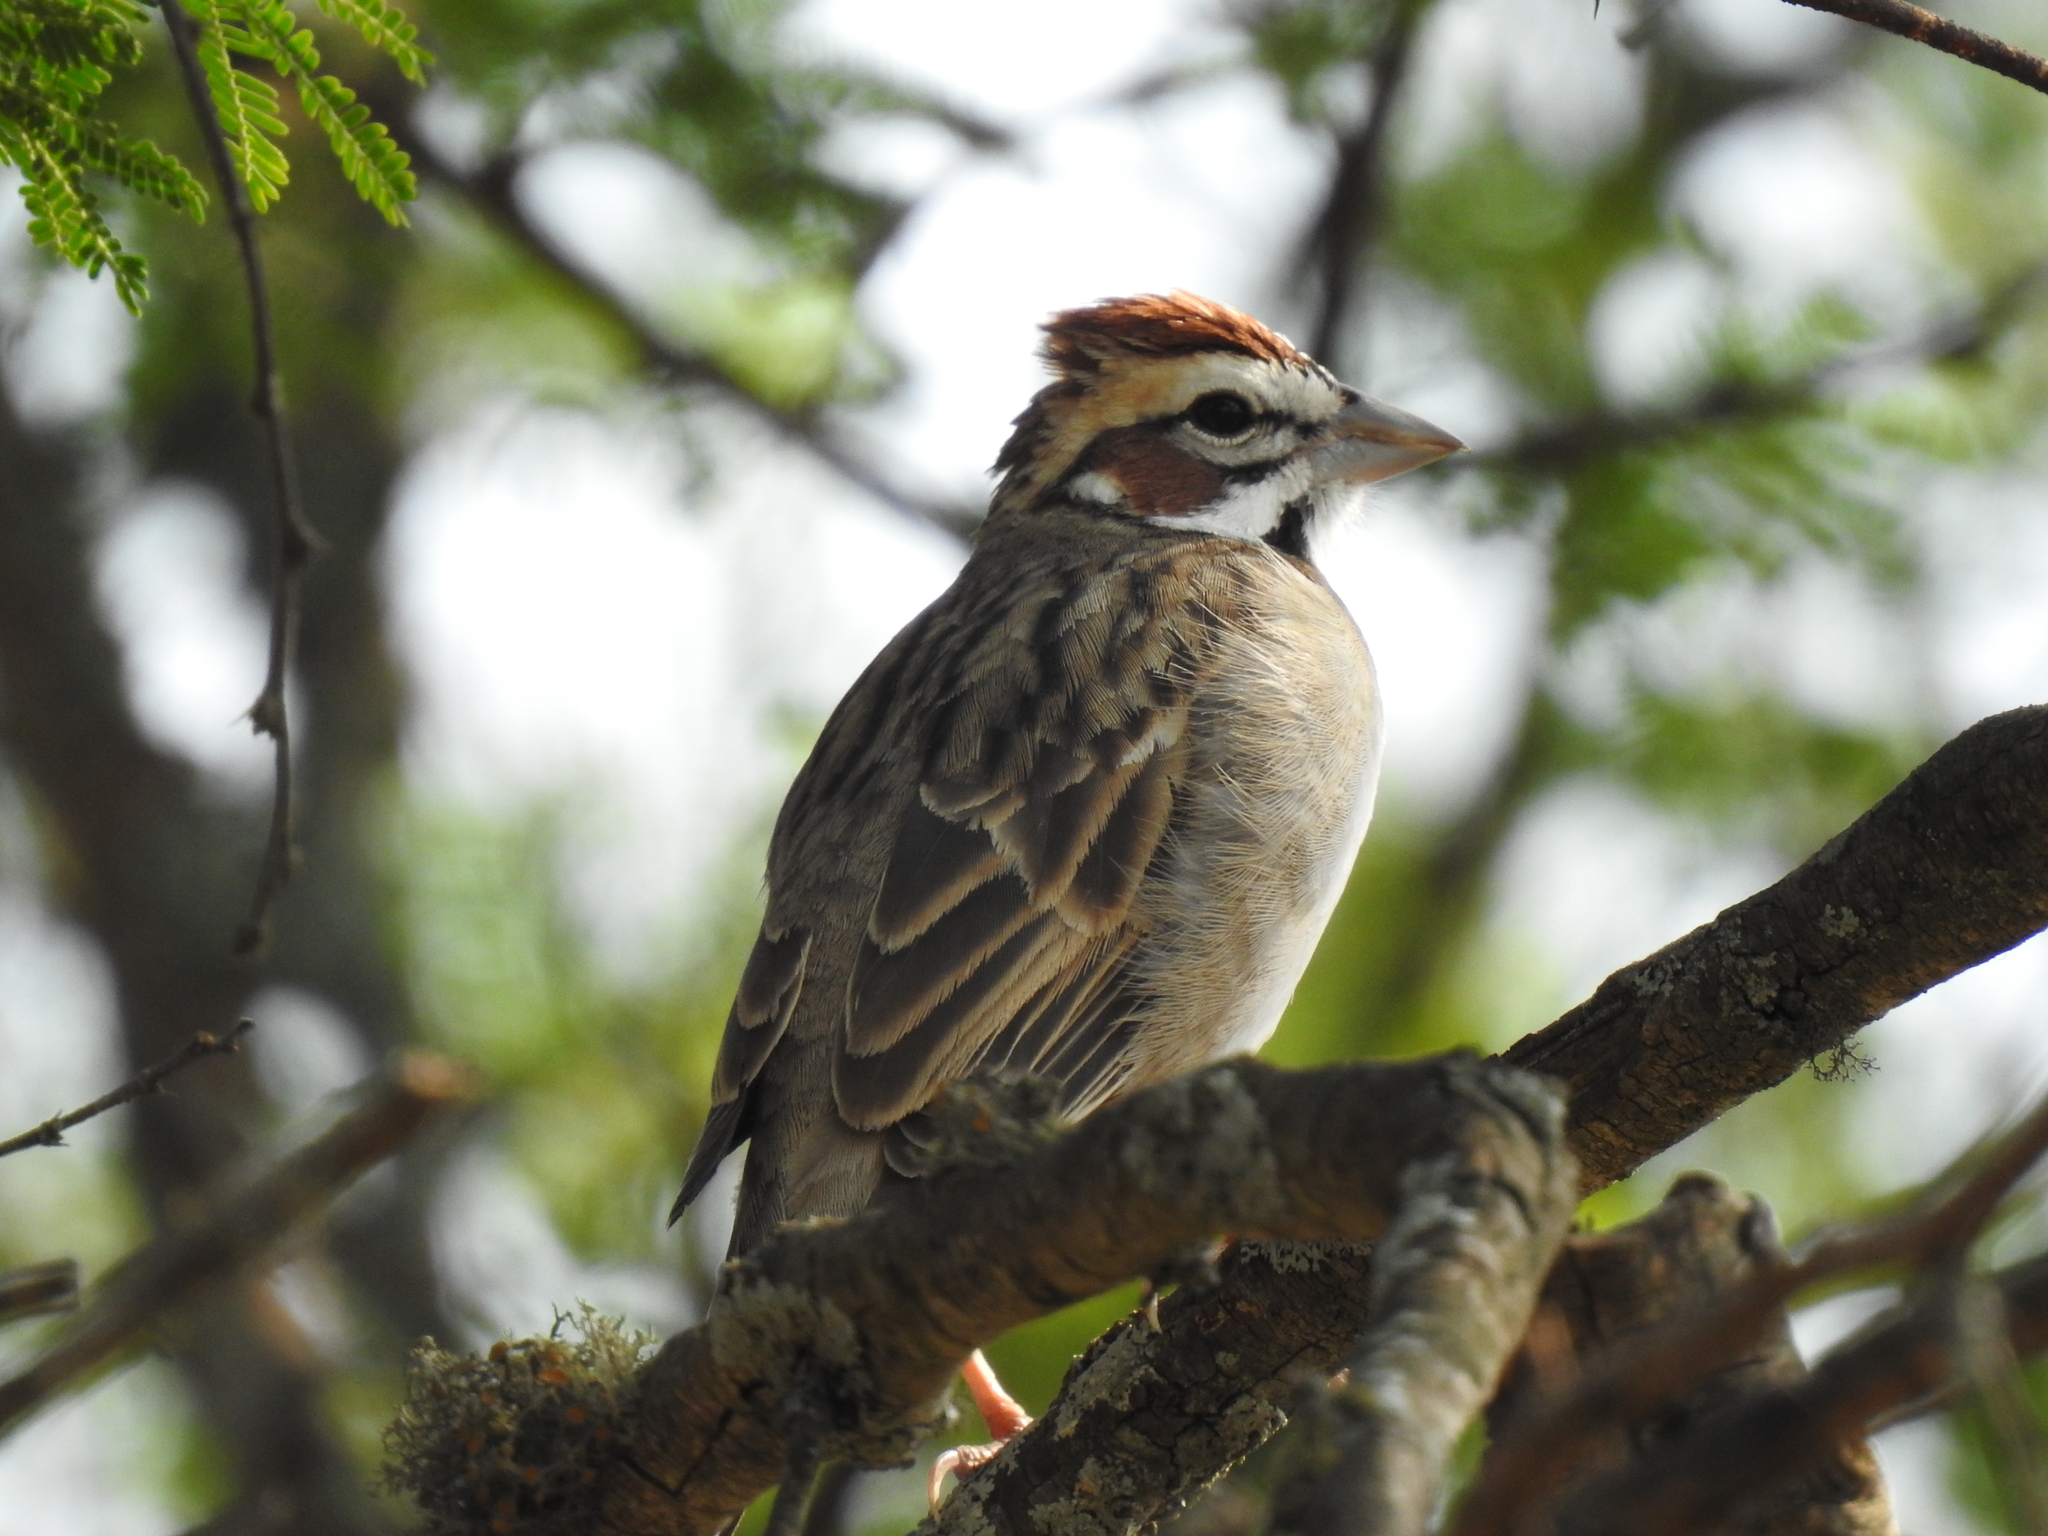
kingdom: Animalia
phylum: Chordata
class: Aves
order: Passeriformes
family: Passerellidae
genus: Chondestes
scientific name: Chondestes grammacus
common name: Lark sparrow
